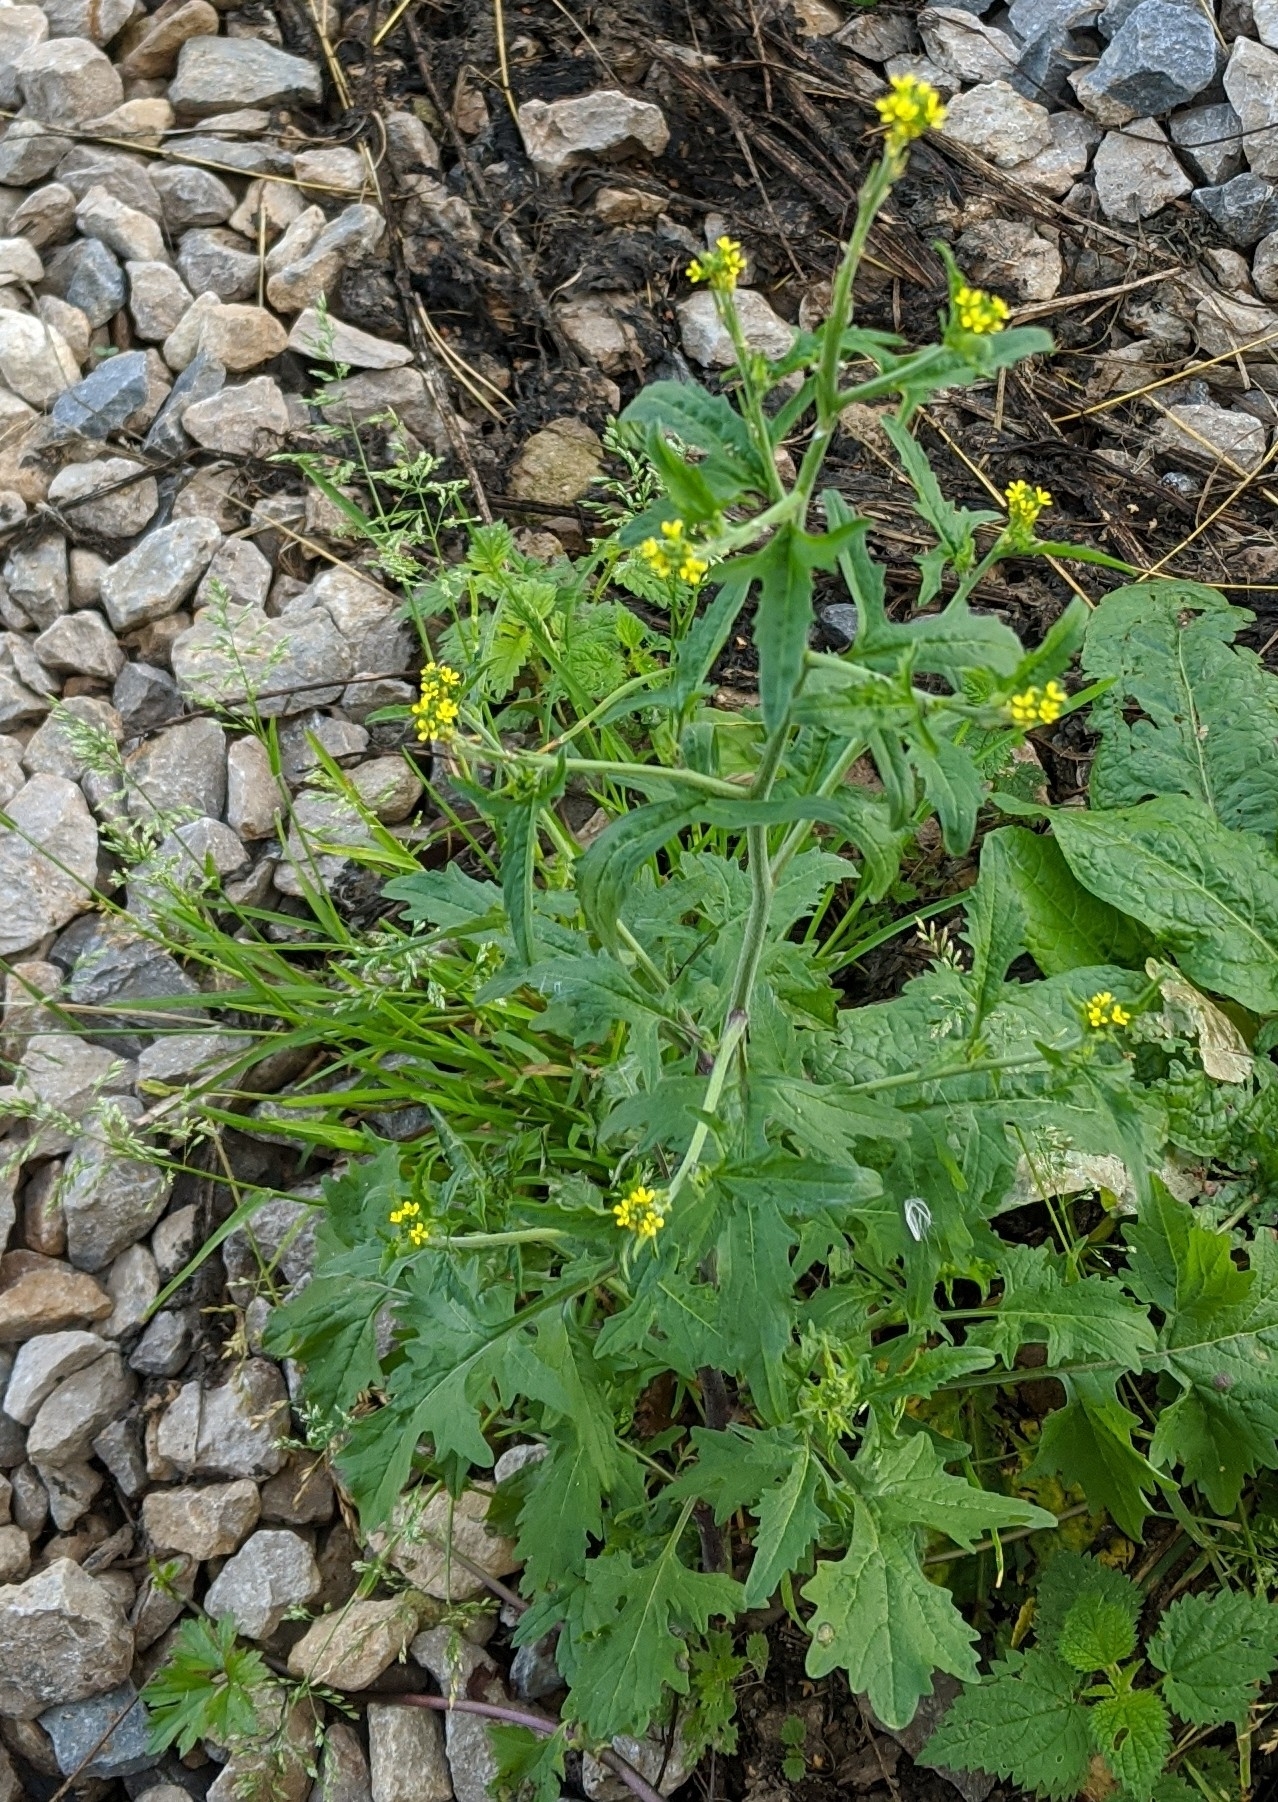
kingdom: Plantae
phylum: Tracheophyta
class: Magnoliopsida
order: Brassicales
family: Brassicaceae
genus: Sisymbrium
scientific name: Sisymbrium officinale
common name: Hedge mustard
